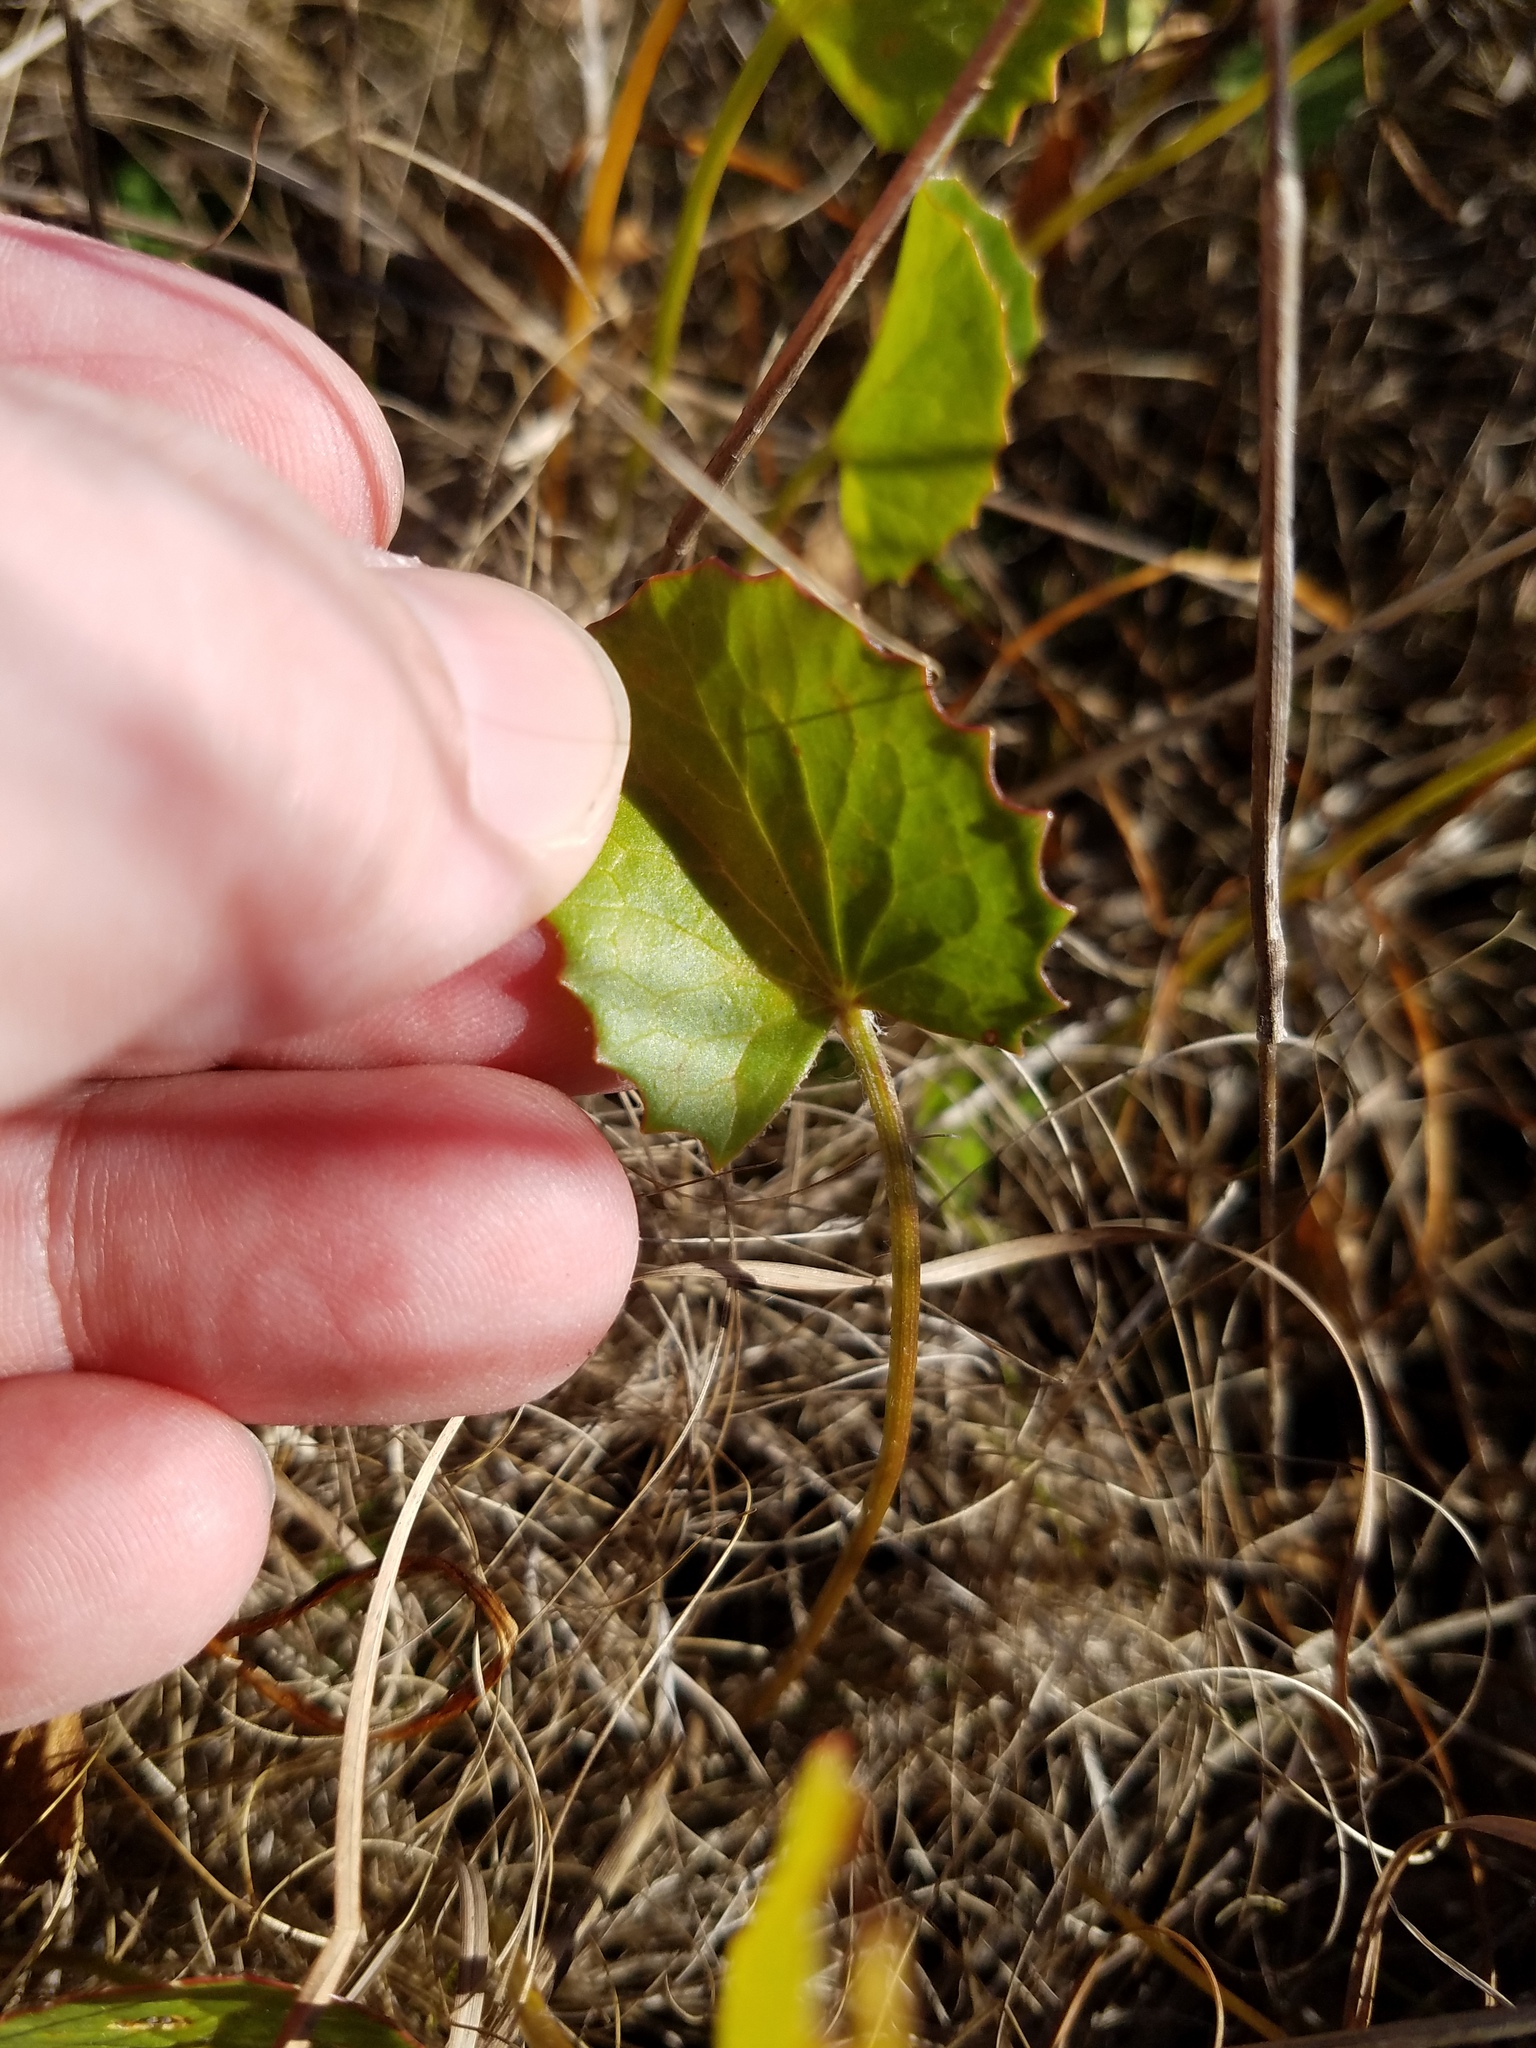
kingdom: Plantae
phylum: Tracheophyta
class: Magnoliopsida
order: Apiales
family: Apiaceae
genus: Centella
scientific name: Centella erecta
